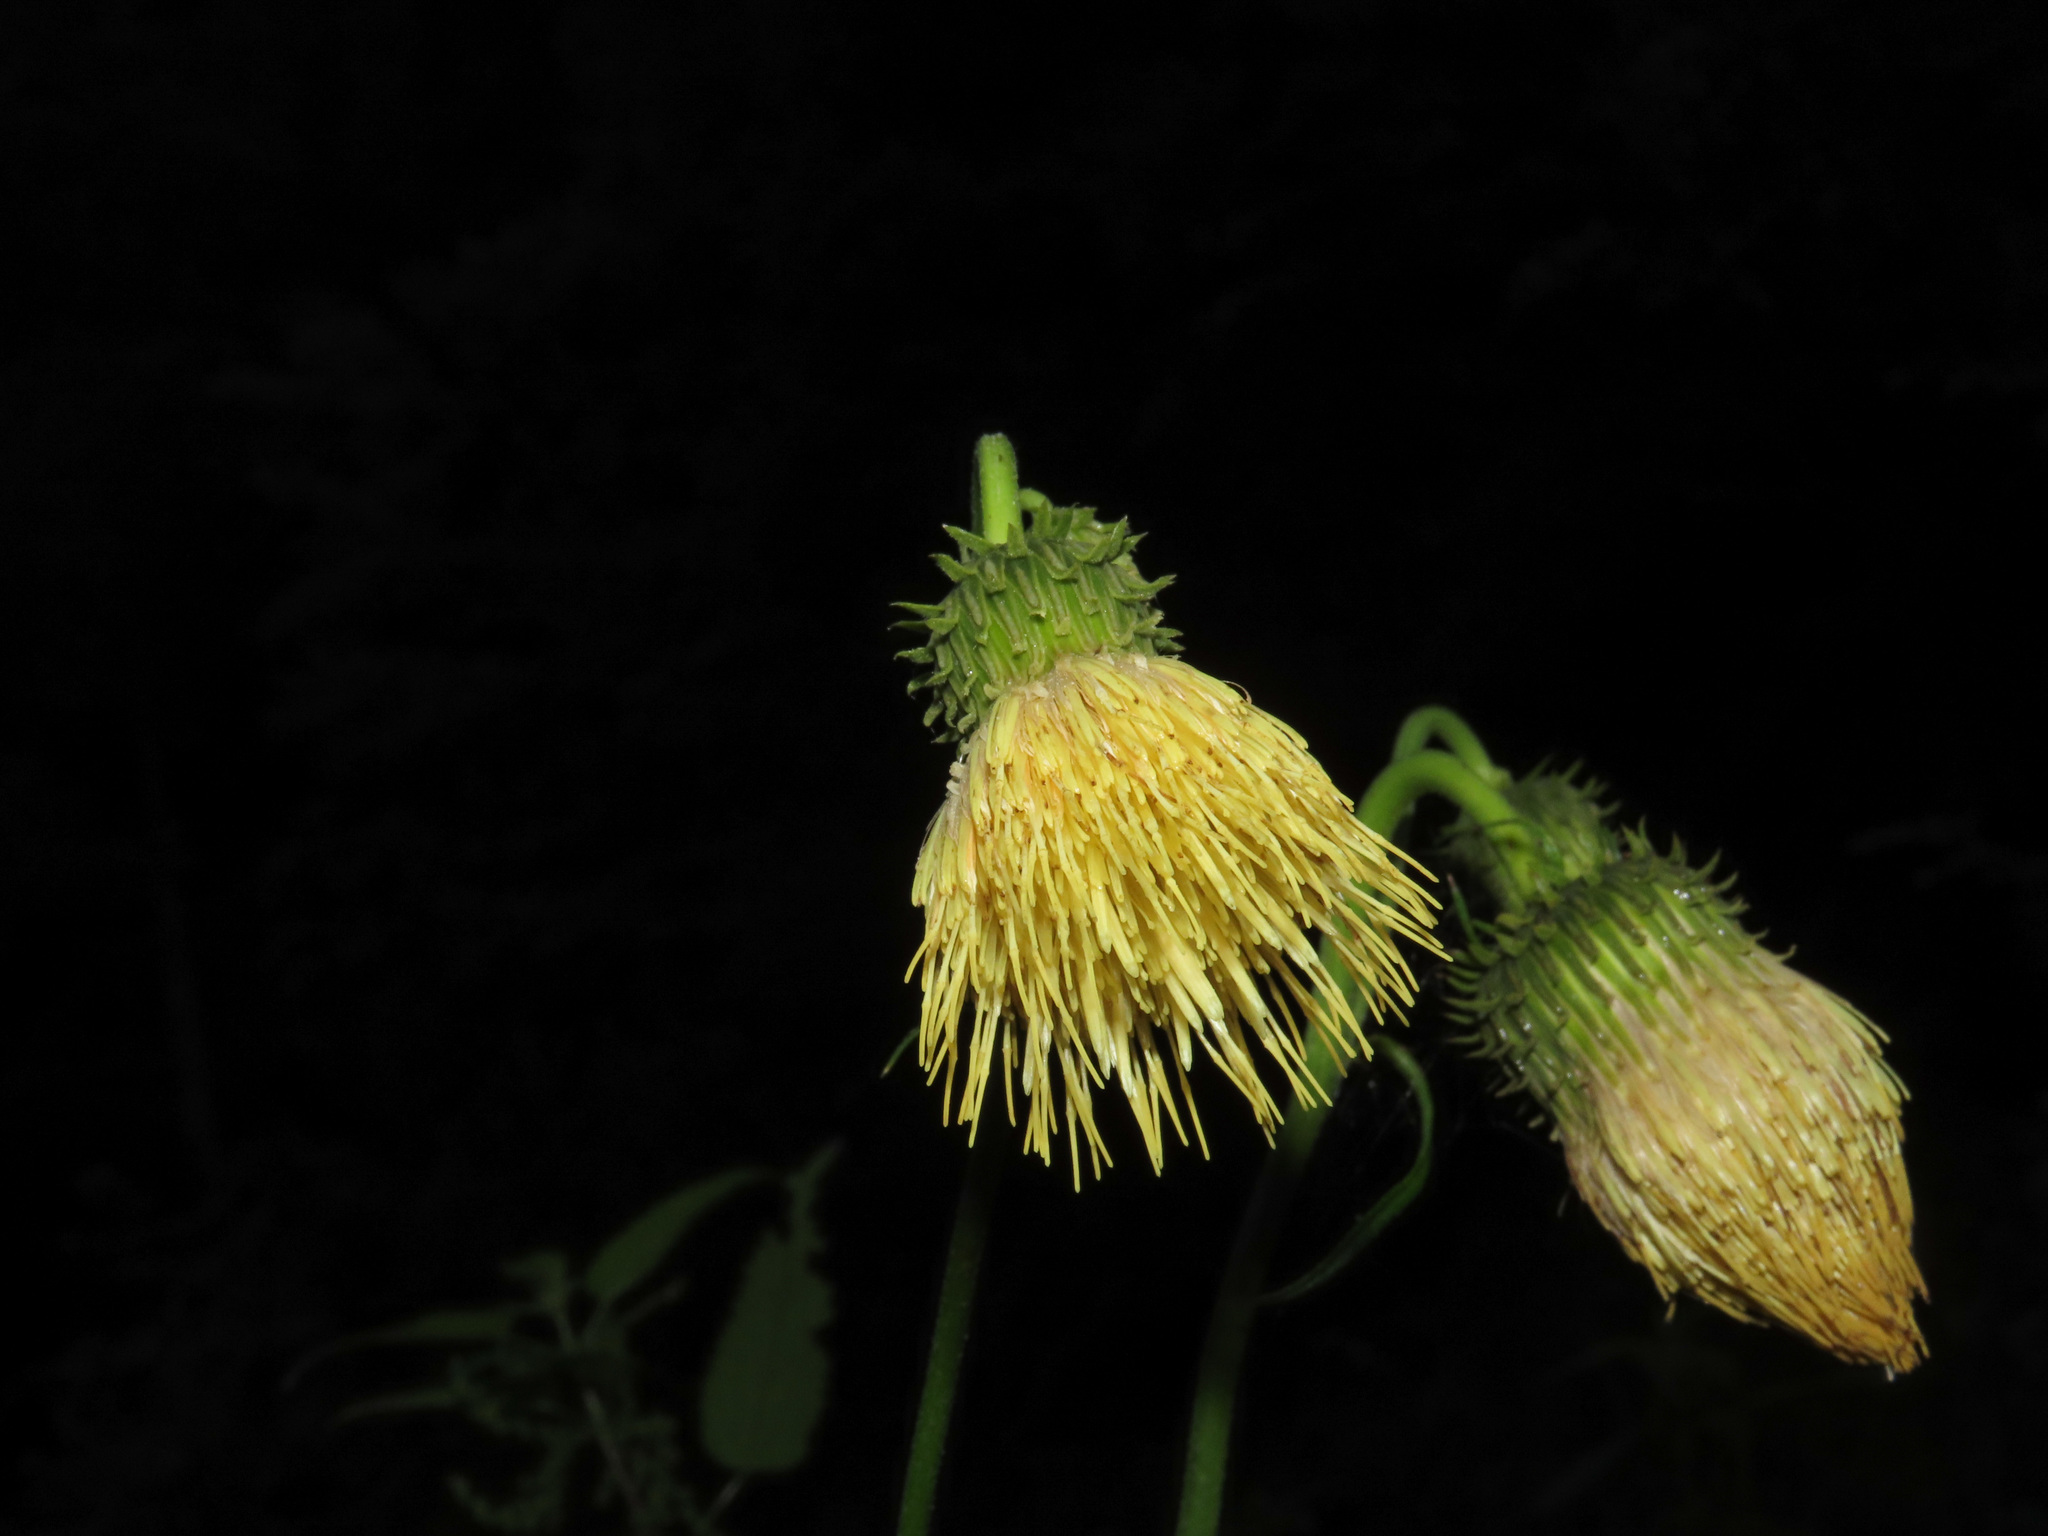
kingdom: Plantae
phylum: Tracheophyta
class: Magnoliopsida
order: Asterales
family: Asteraceae
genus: Cirsium
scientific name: Cirsium erisithales
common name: Yellow thistle
